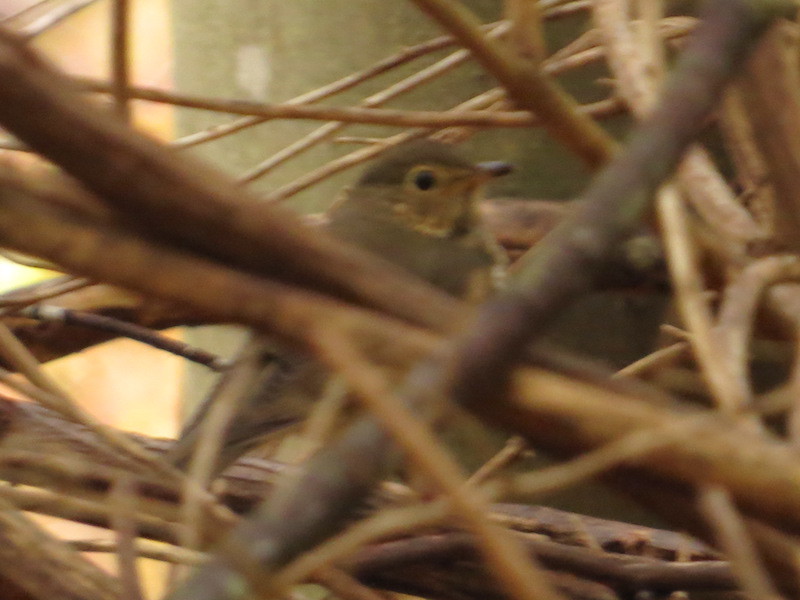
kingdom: Animalia
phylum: Chordata
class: Aves
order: Passeriformes
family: Turdidae
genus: Catharus
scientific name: Catharus ustulatus
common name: Swainson's thrush
